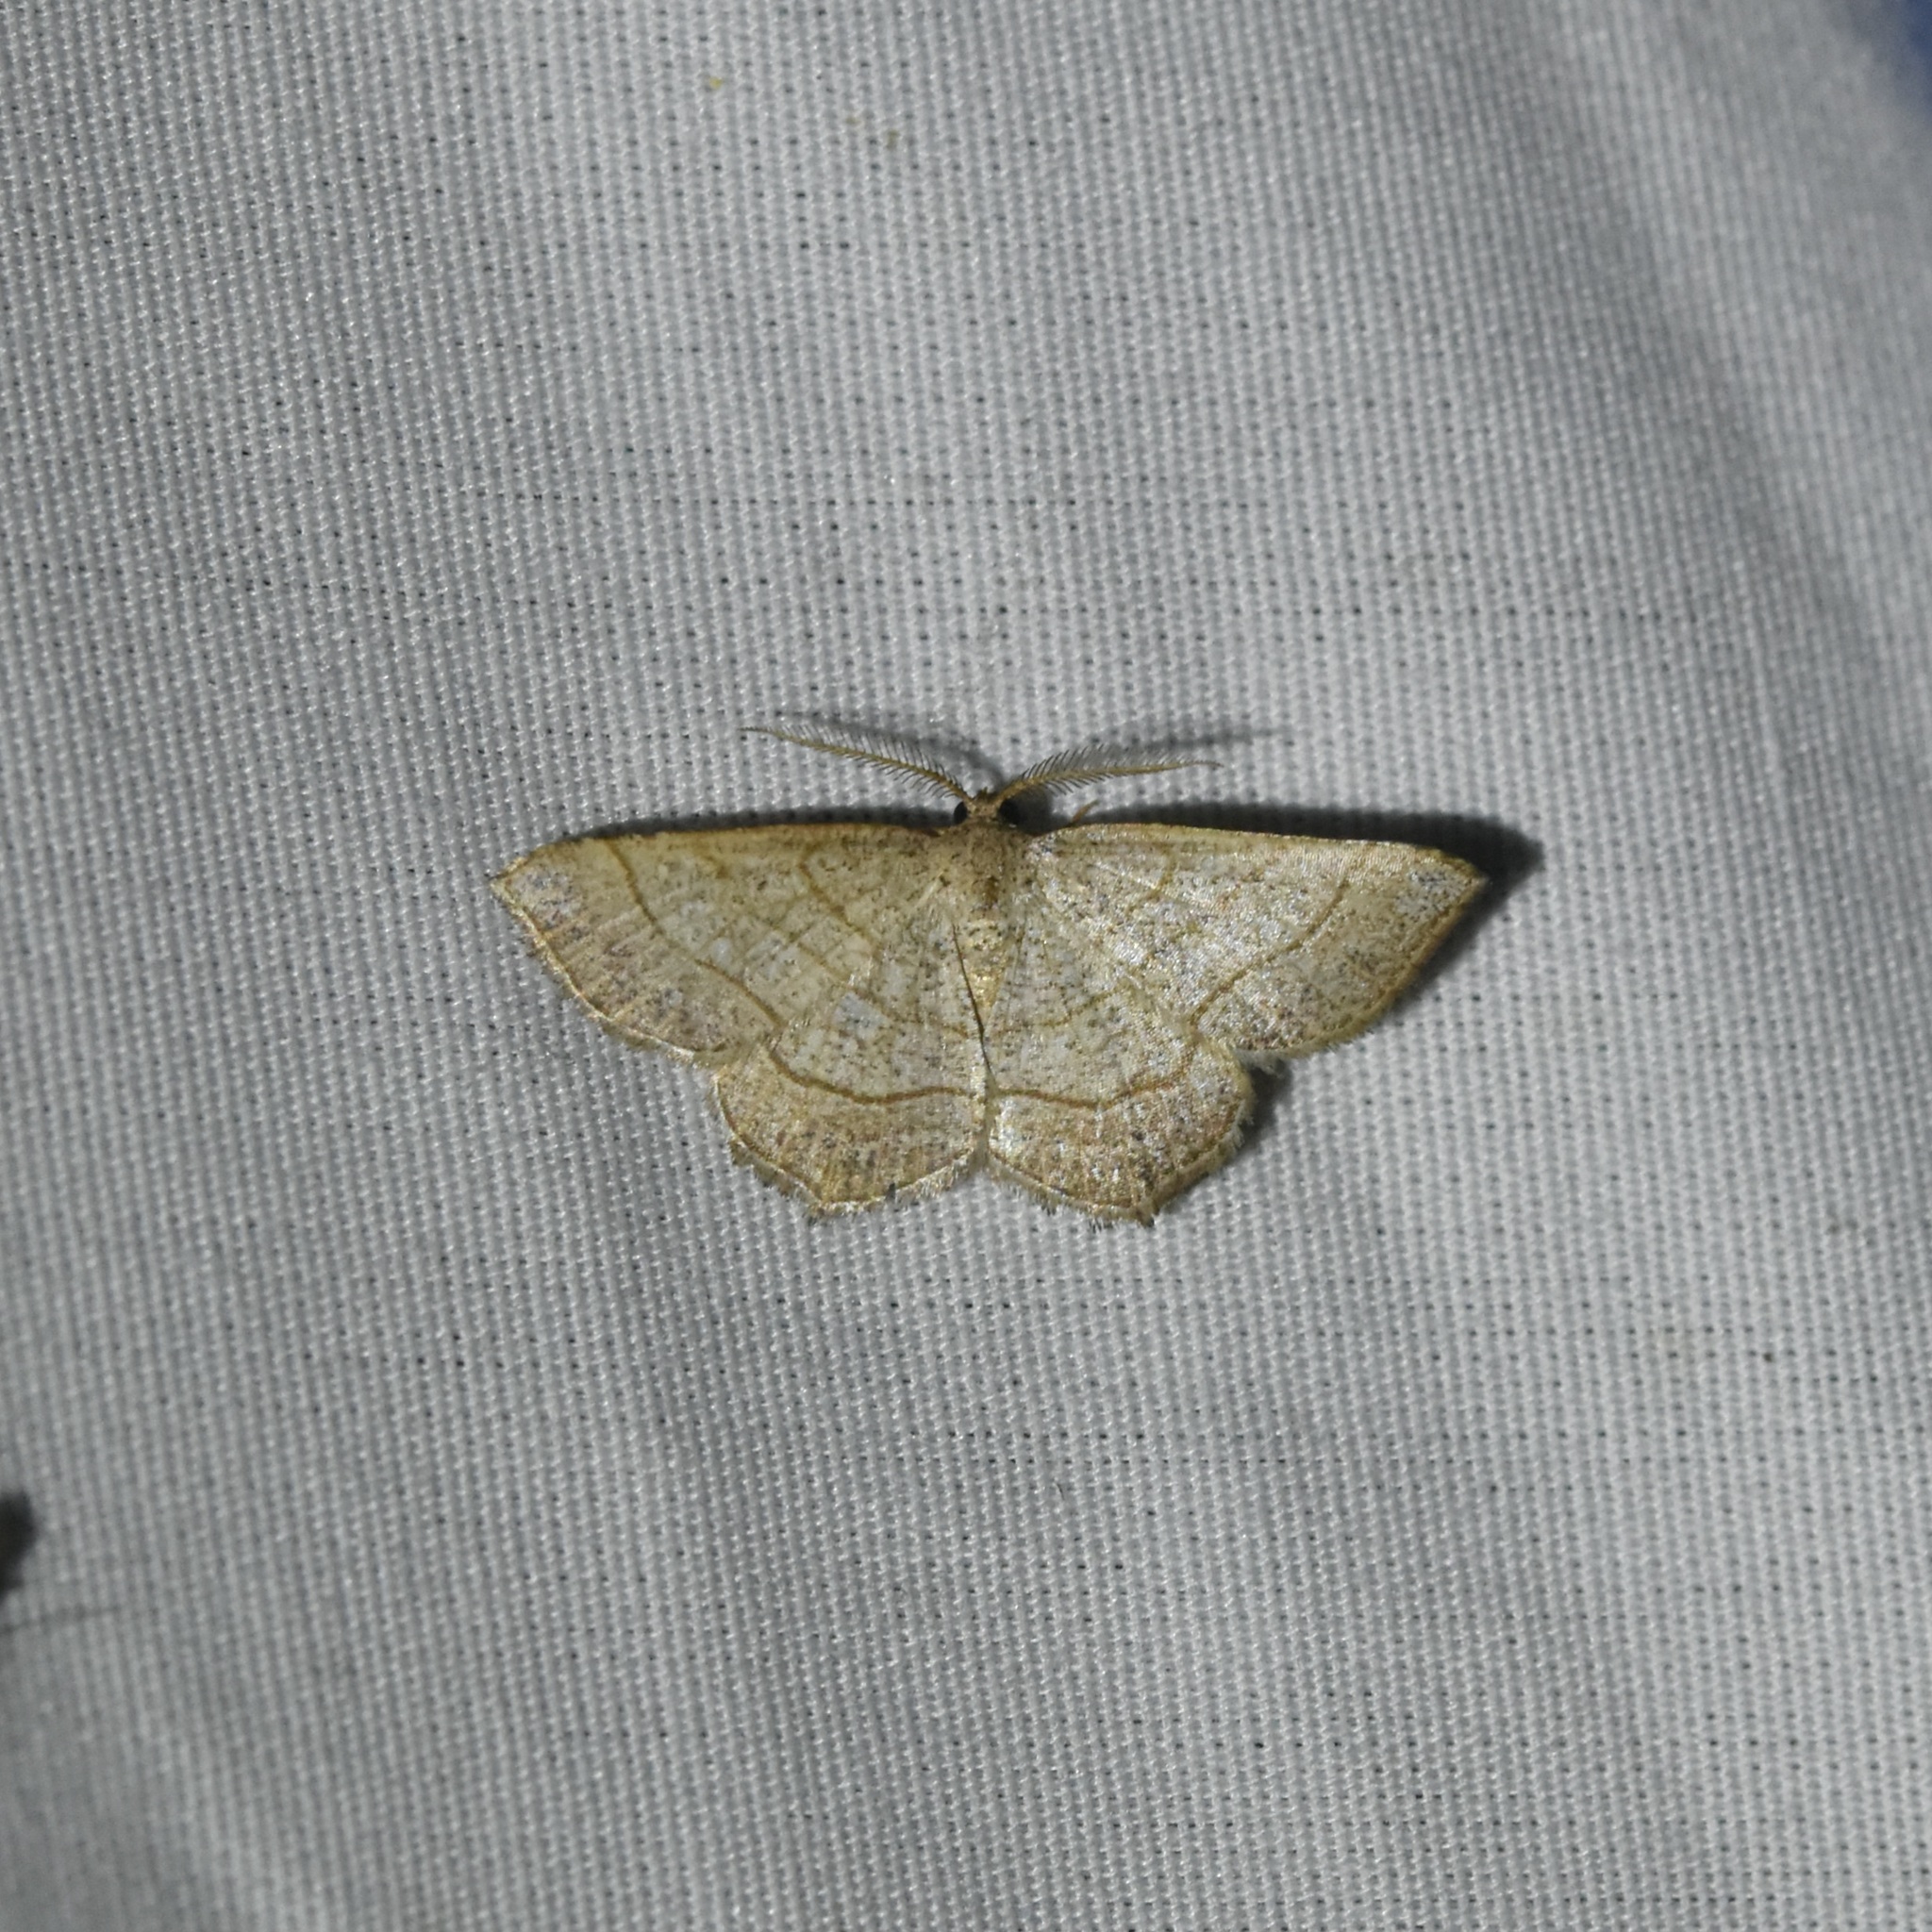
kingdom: Animalia
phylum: Arthropoda
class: Insecta
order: Lepidoptera
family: Geometridae
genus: Eumacaria
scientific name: Eumacaria madopata
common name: Brown-bordered geometer
